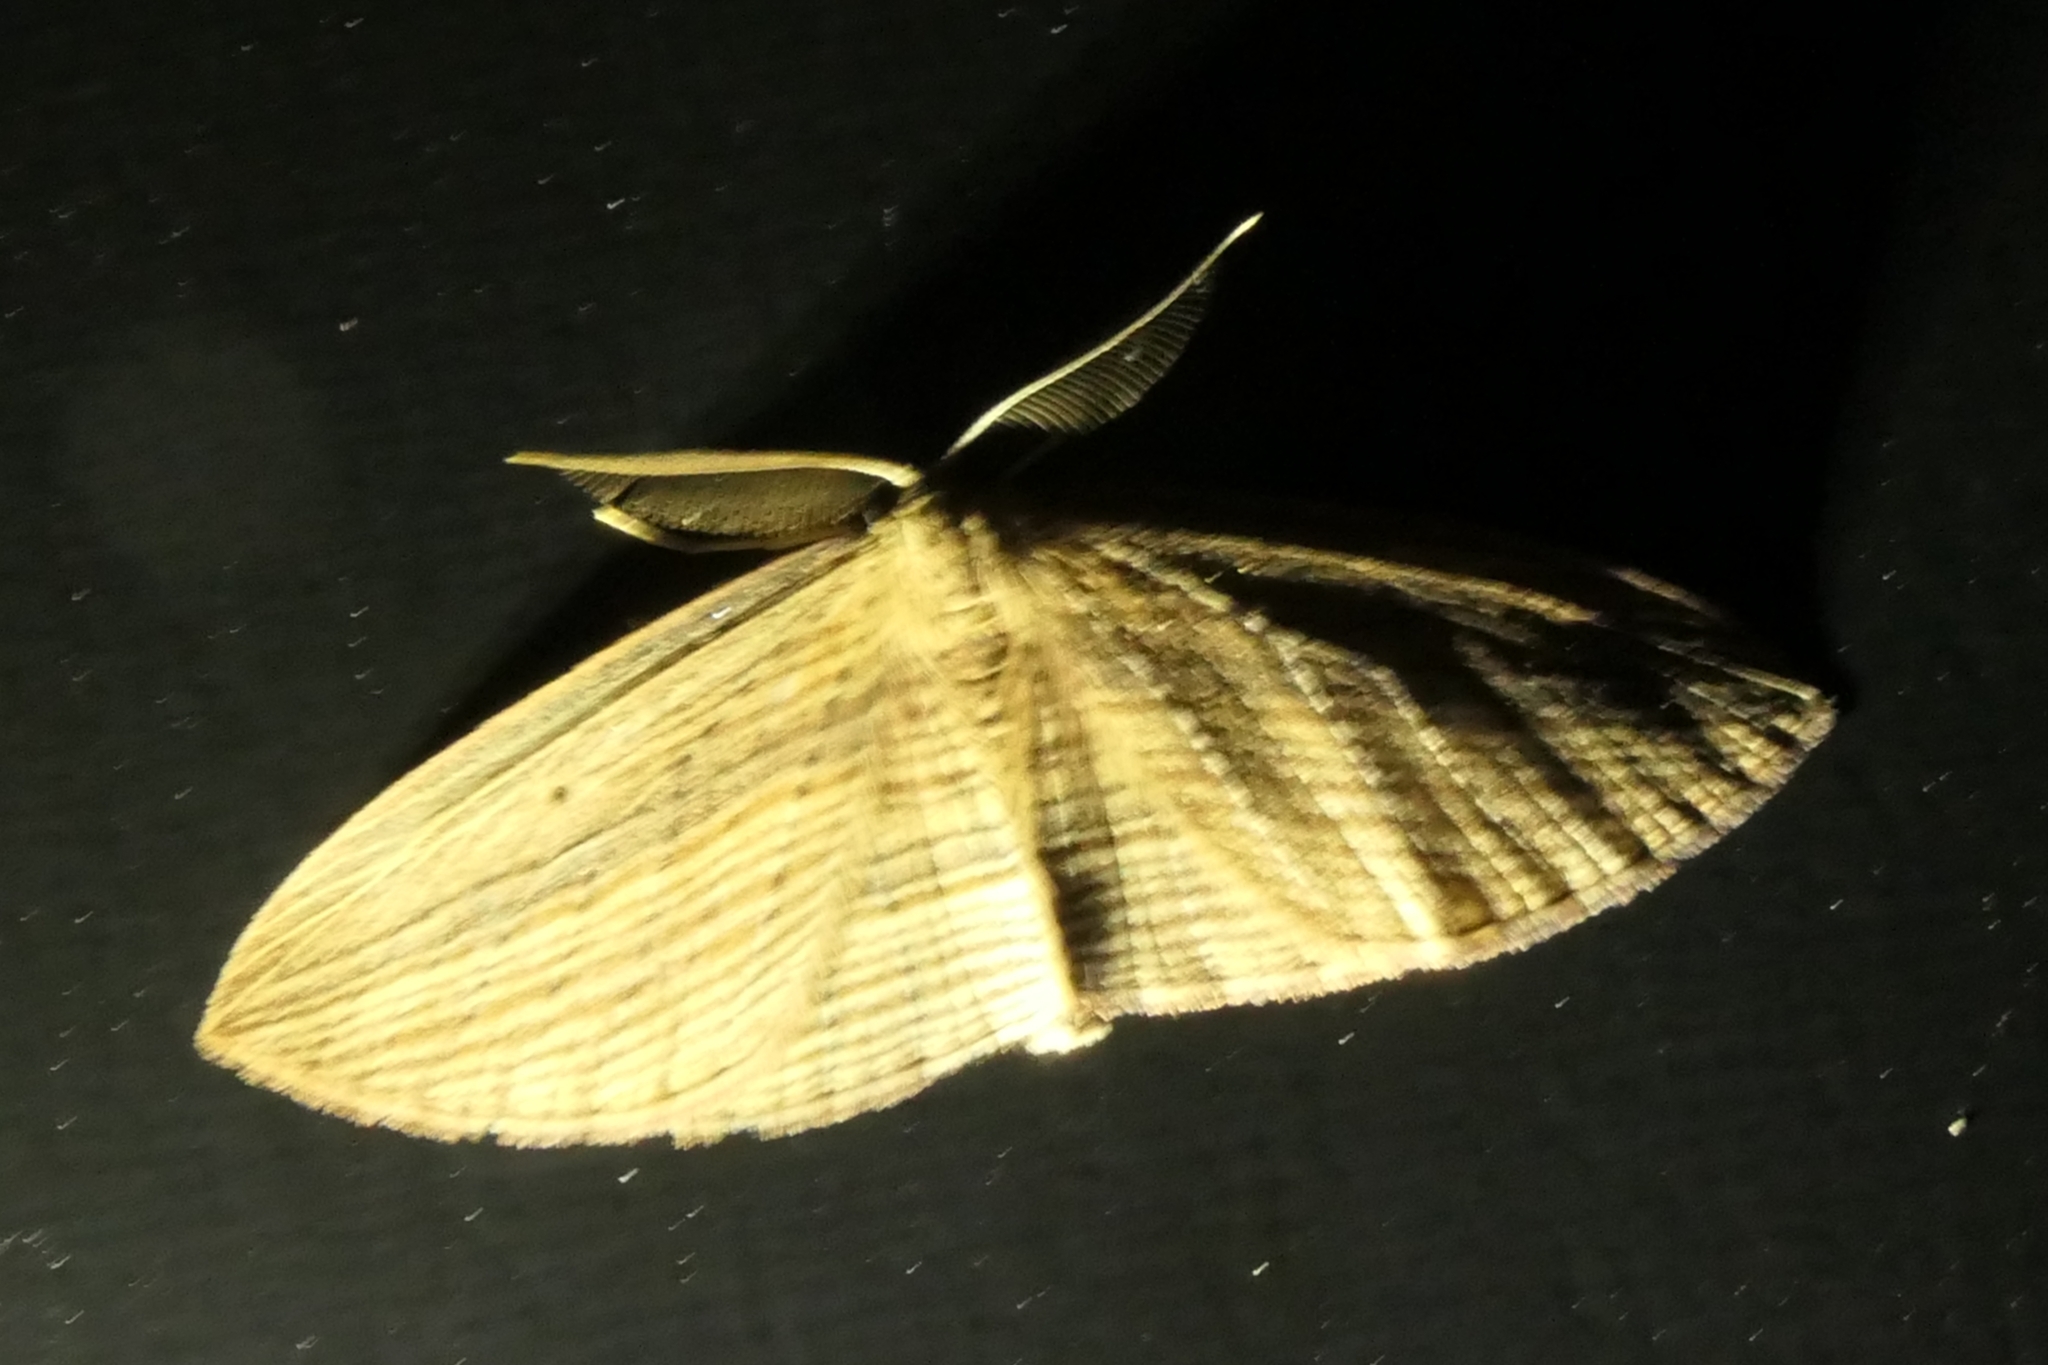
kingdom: Animalia
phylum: Arthropoda
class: Insecta
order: Lepidoptera
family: Geometridae
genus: Epiphryne
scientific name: Epiphryne verriculata
